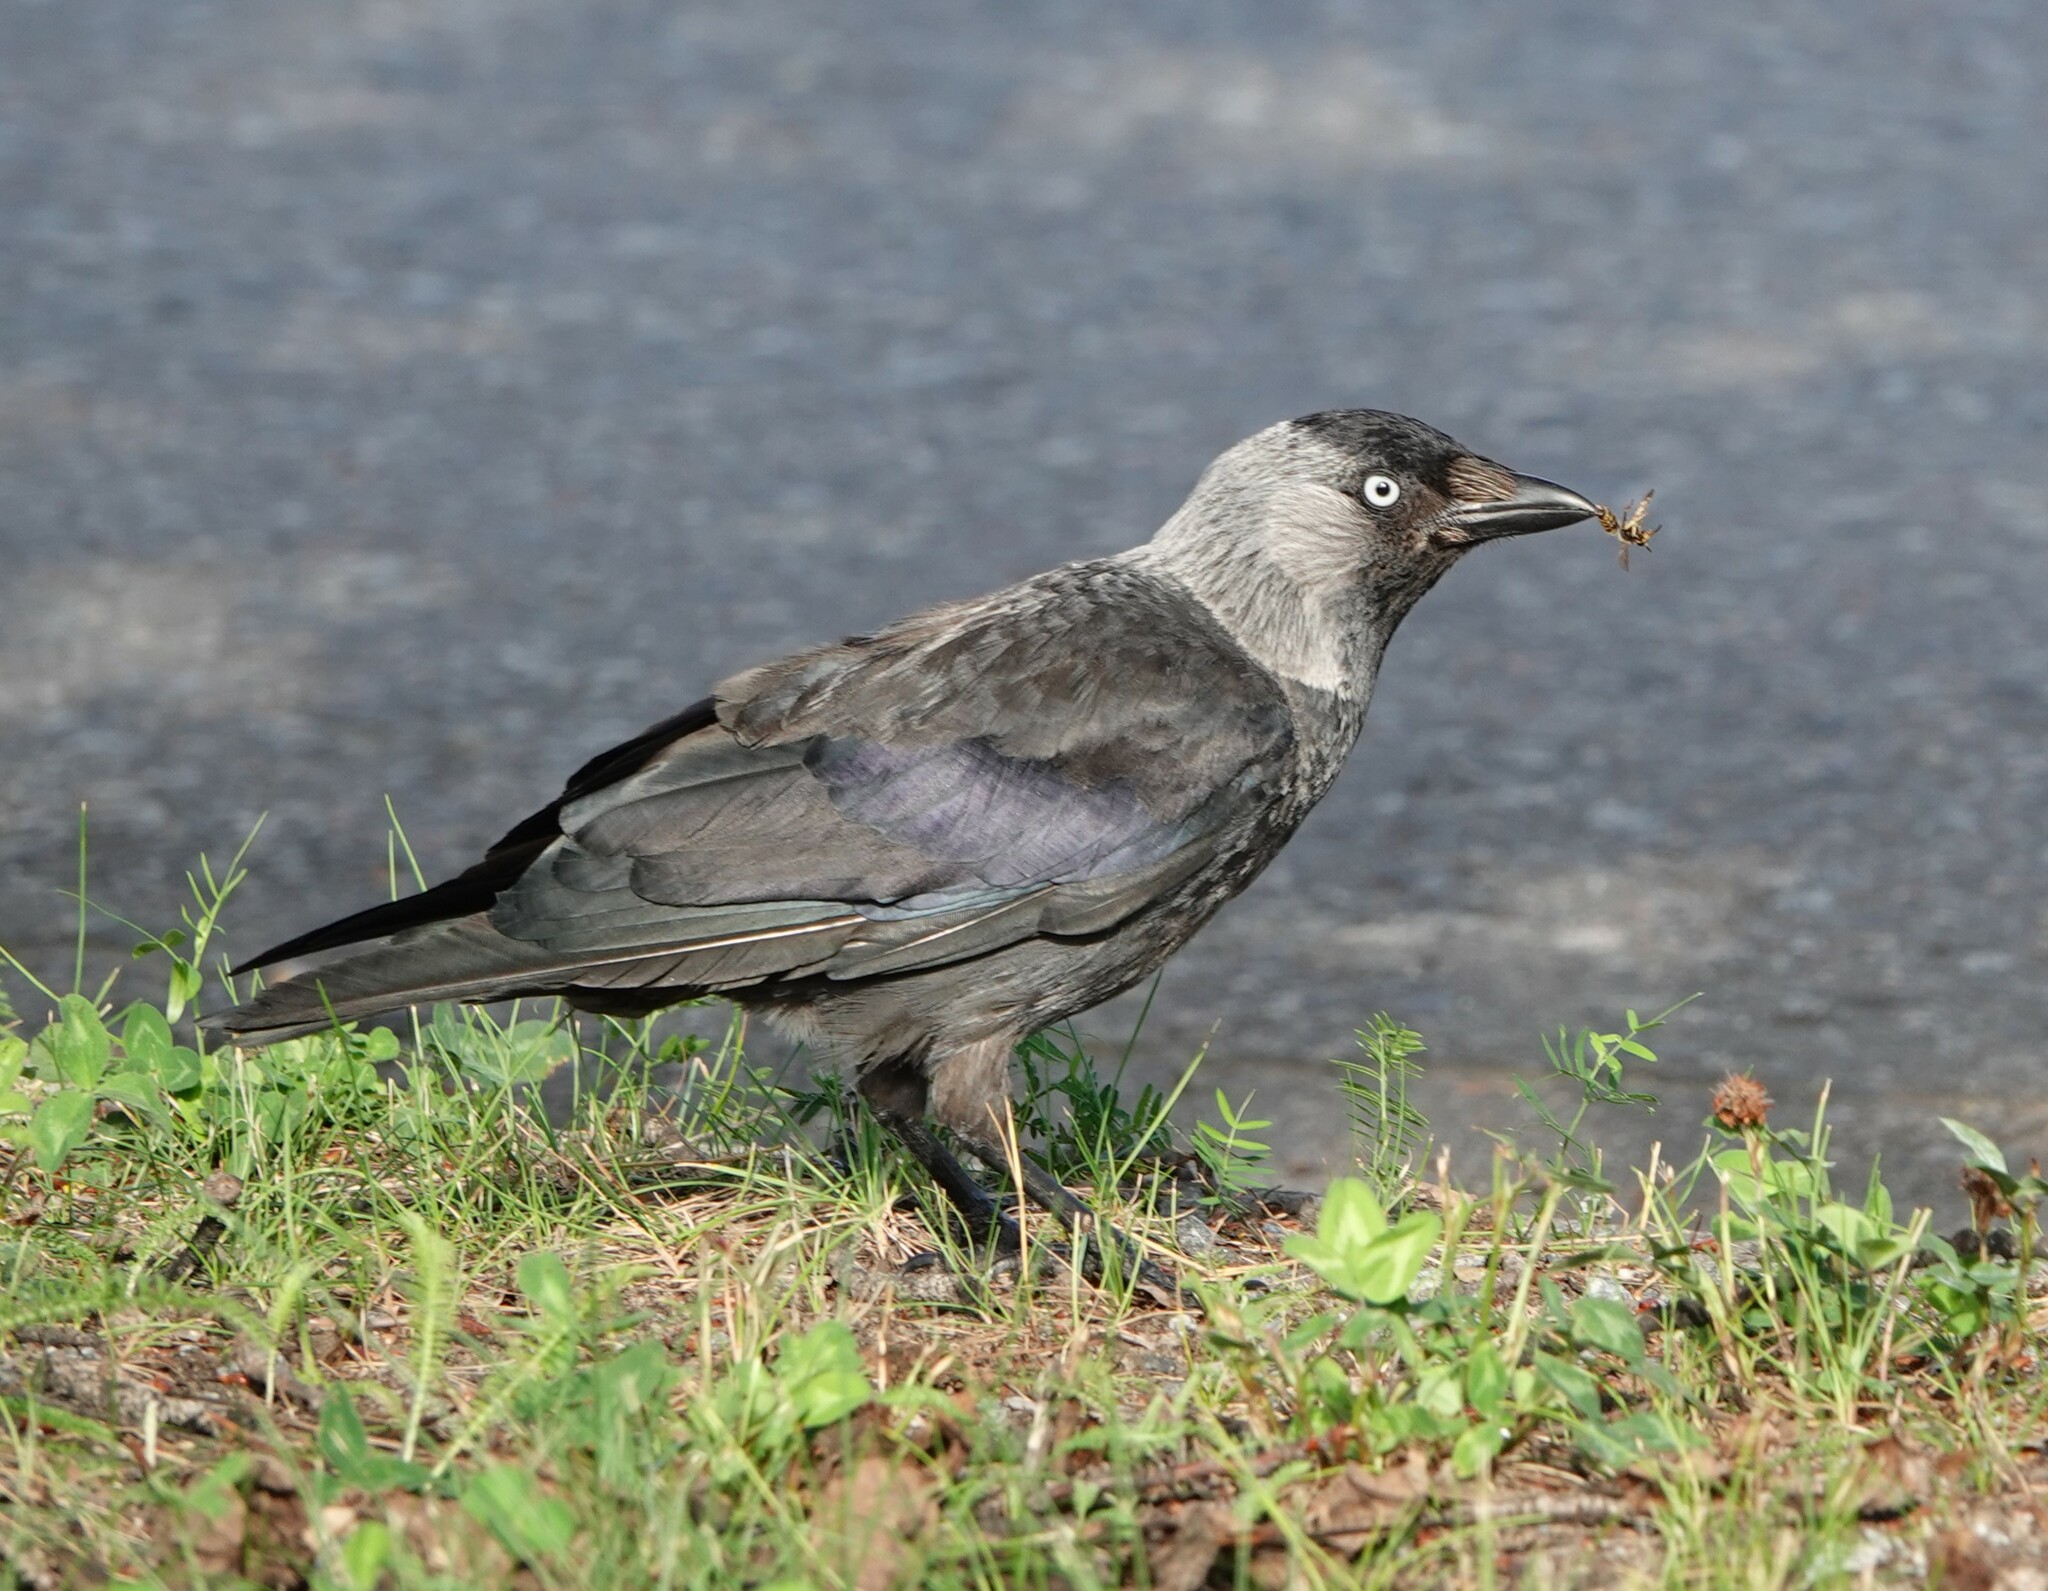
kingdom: Animalia
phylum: Chordata
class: Aves
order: Passeriformes
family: Corvidae
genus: Coloeus
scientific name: Coloeus monedula
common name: Western jackdaw
